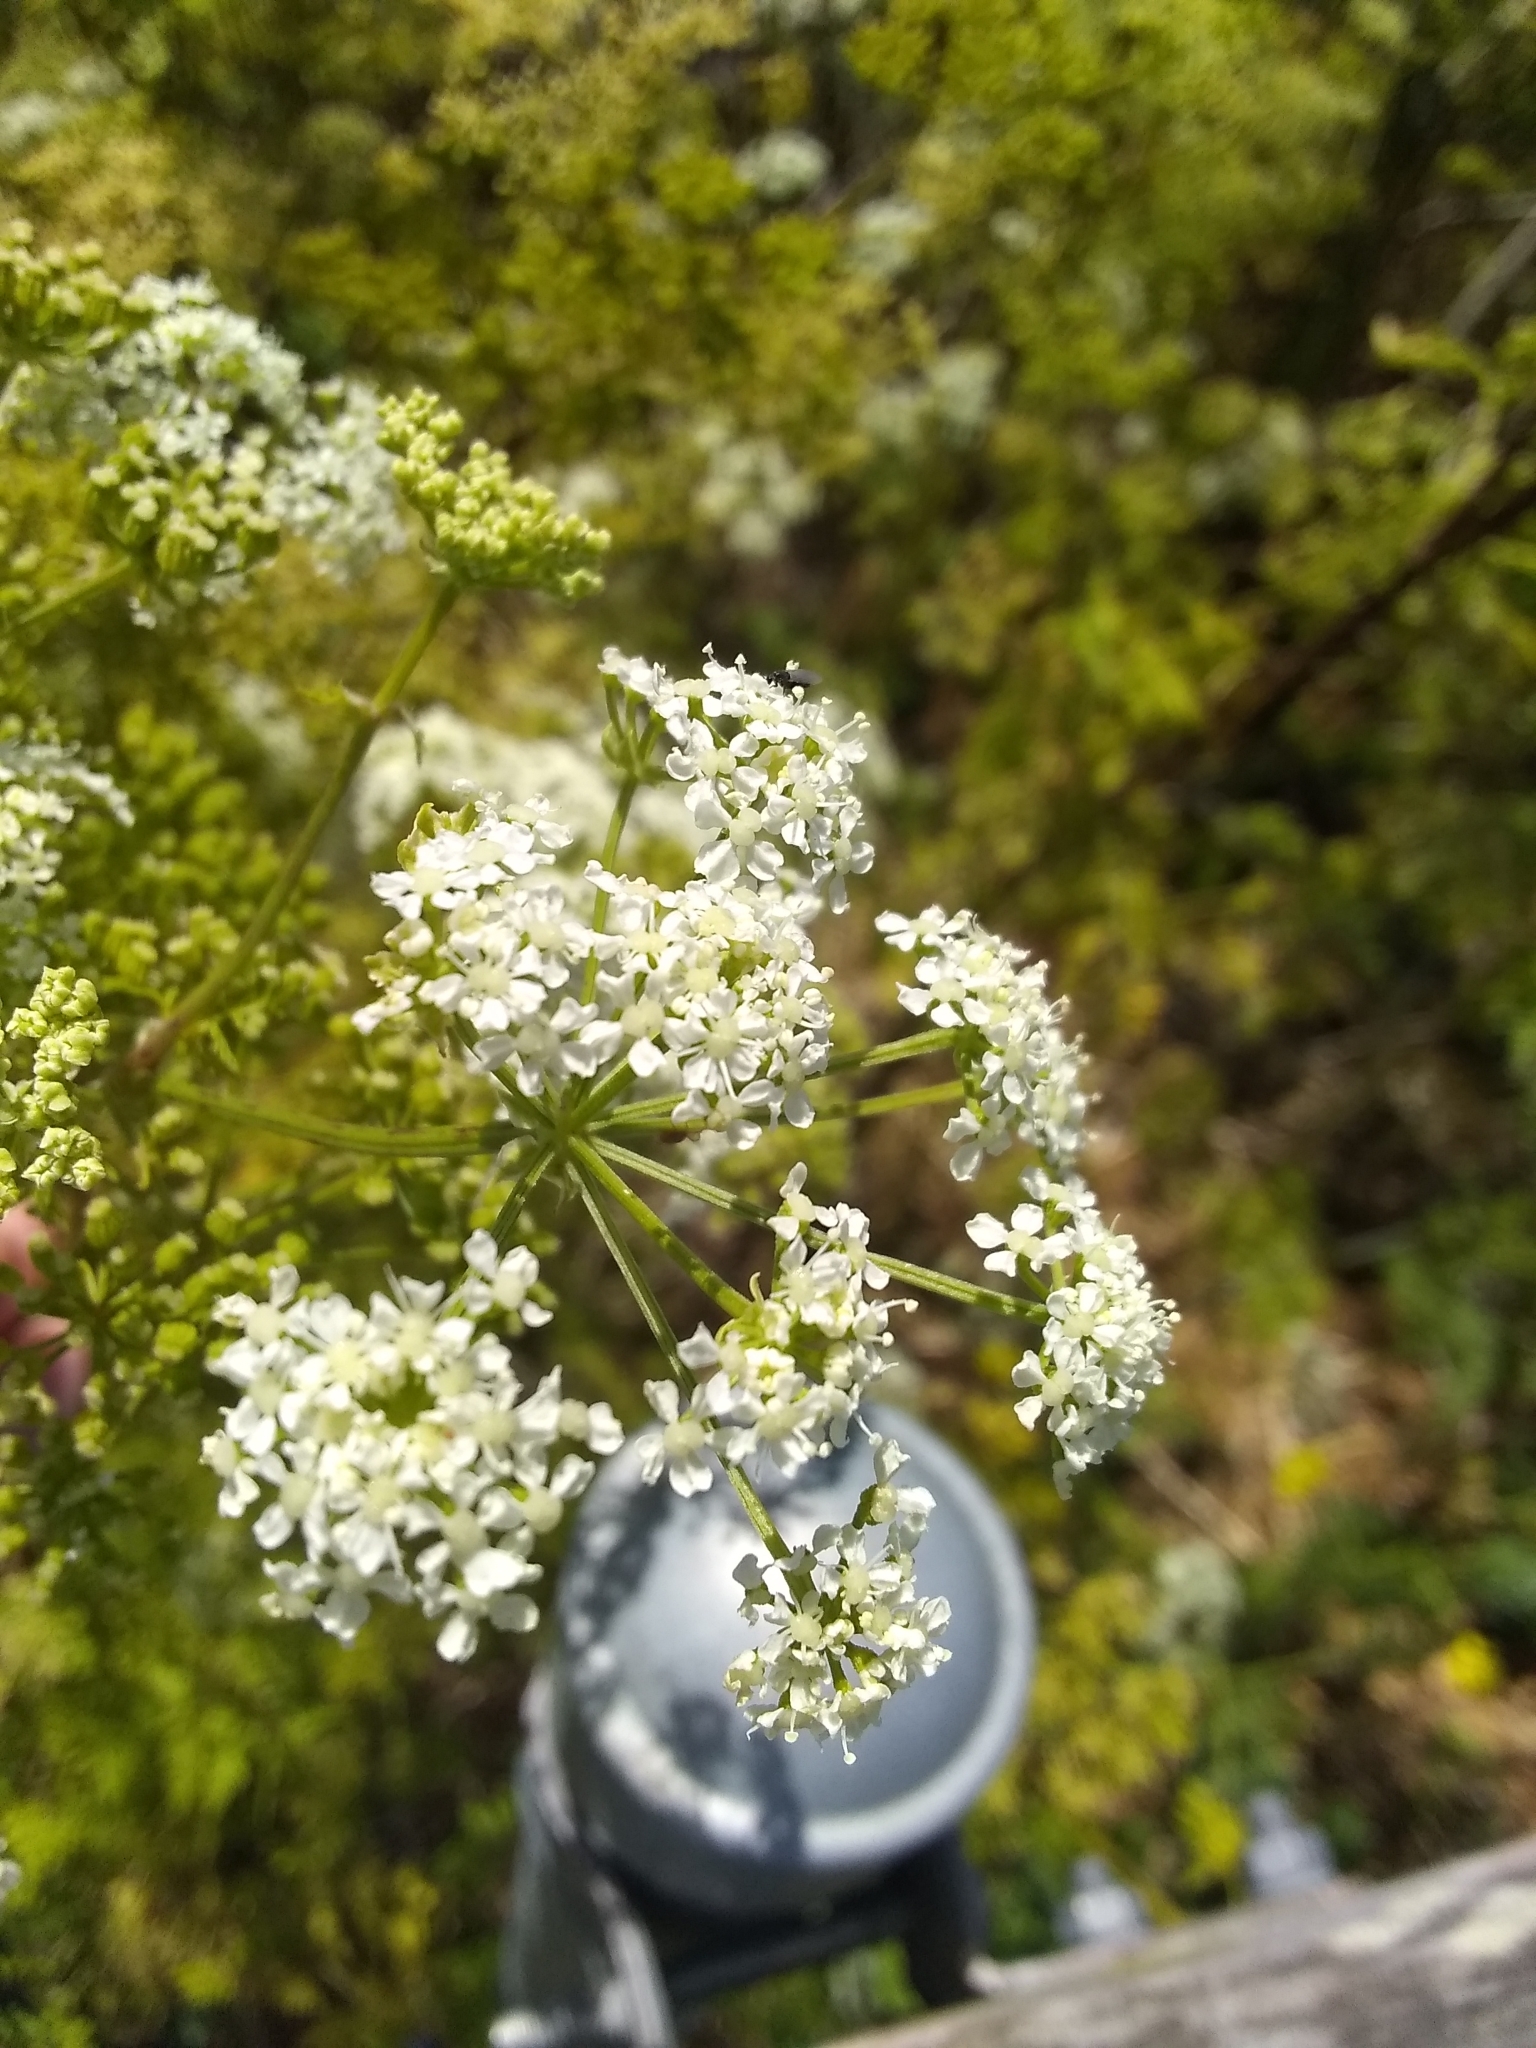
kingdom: Plantae
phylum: Tracheophyta
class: Magnoliopsida
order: Apiales
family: Apiaceae
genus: Conium
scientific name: Conium maculatum
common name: Hemlock
